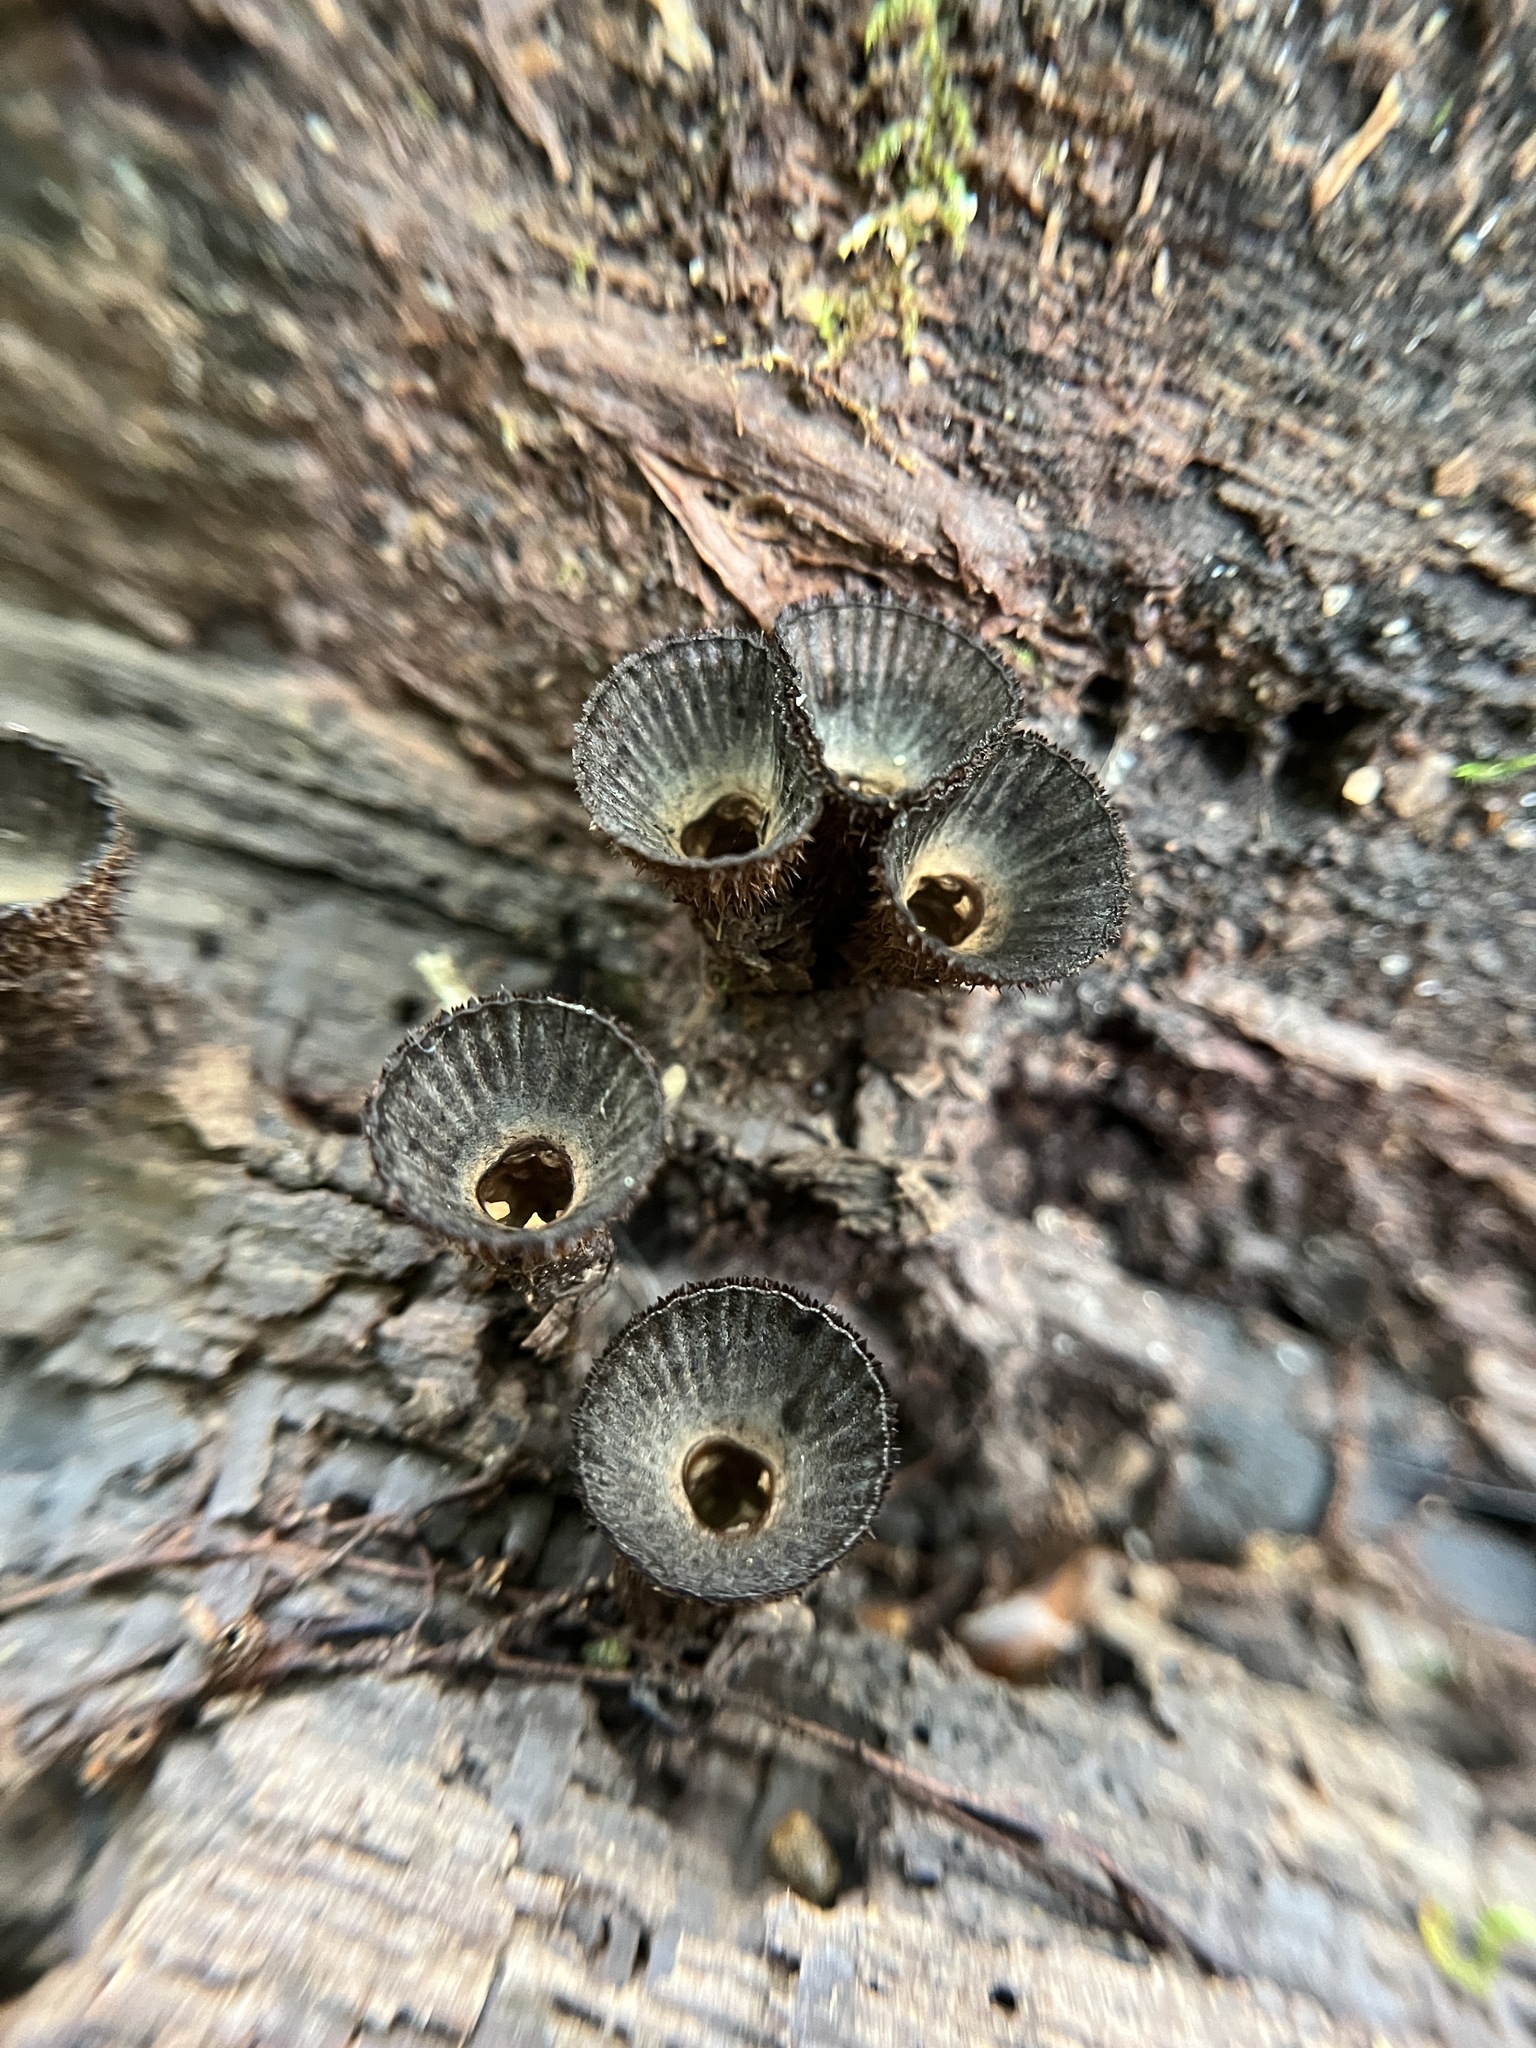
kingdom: Fungi
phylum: Basidiomycota
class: Agaricomycetes
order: Agaricales
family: Agaricaceae
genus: Cyathus
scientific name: Cyathus striatus
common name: Fluted bird's nest
